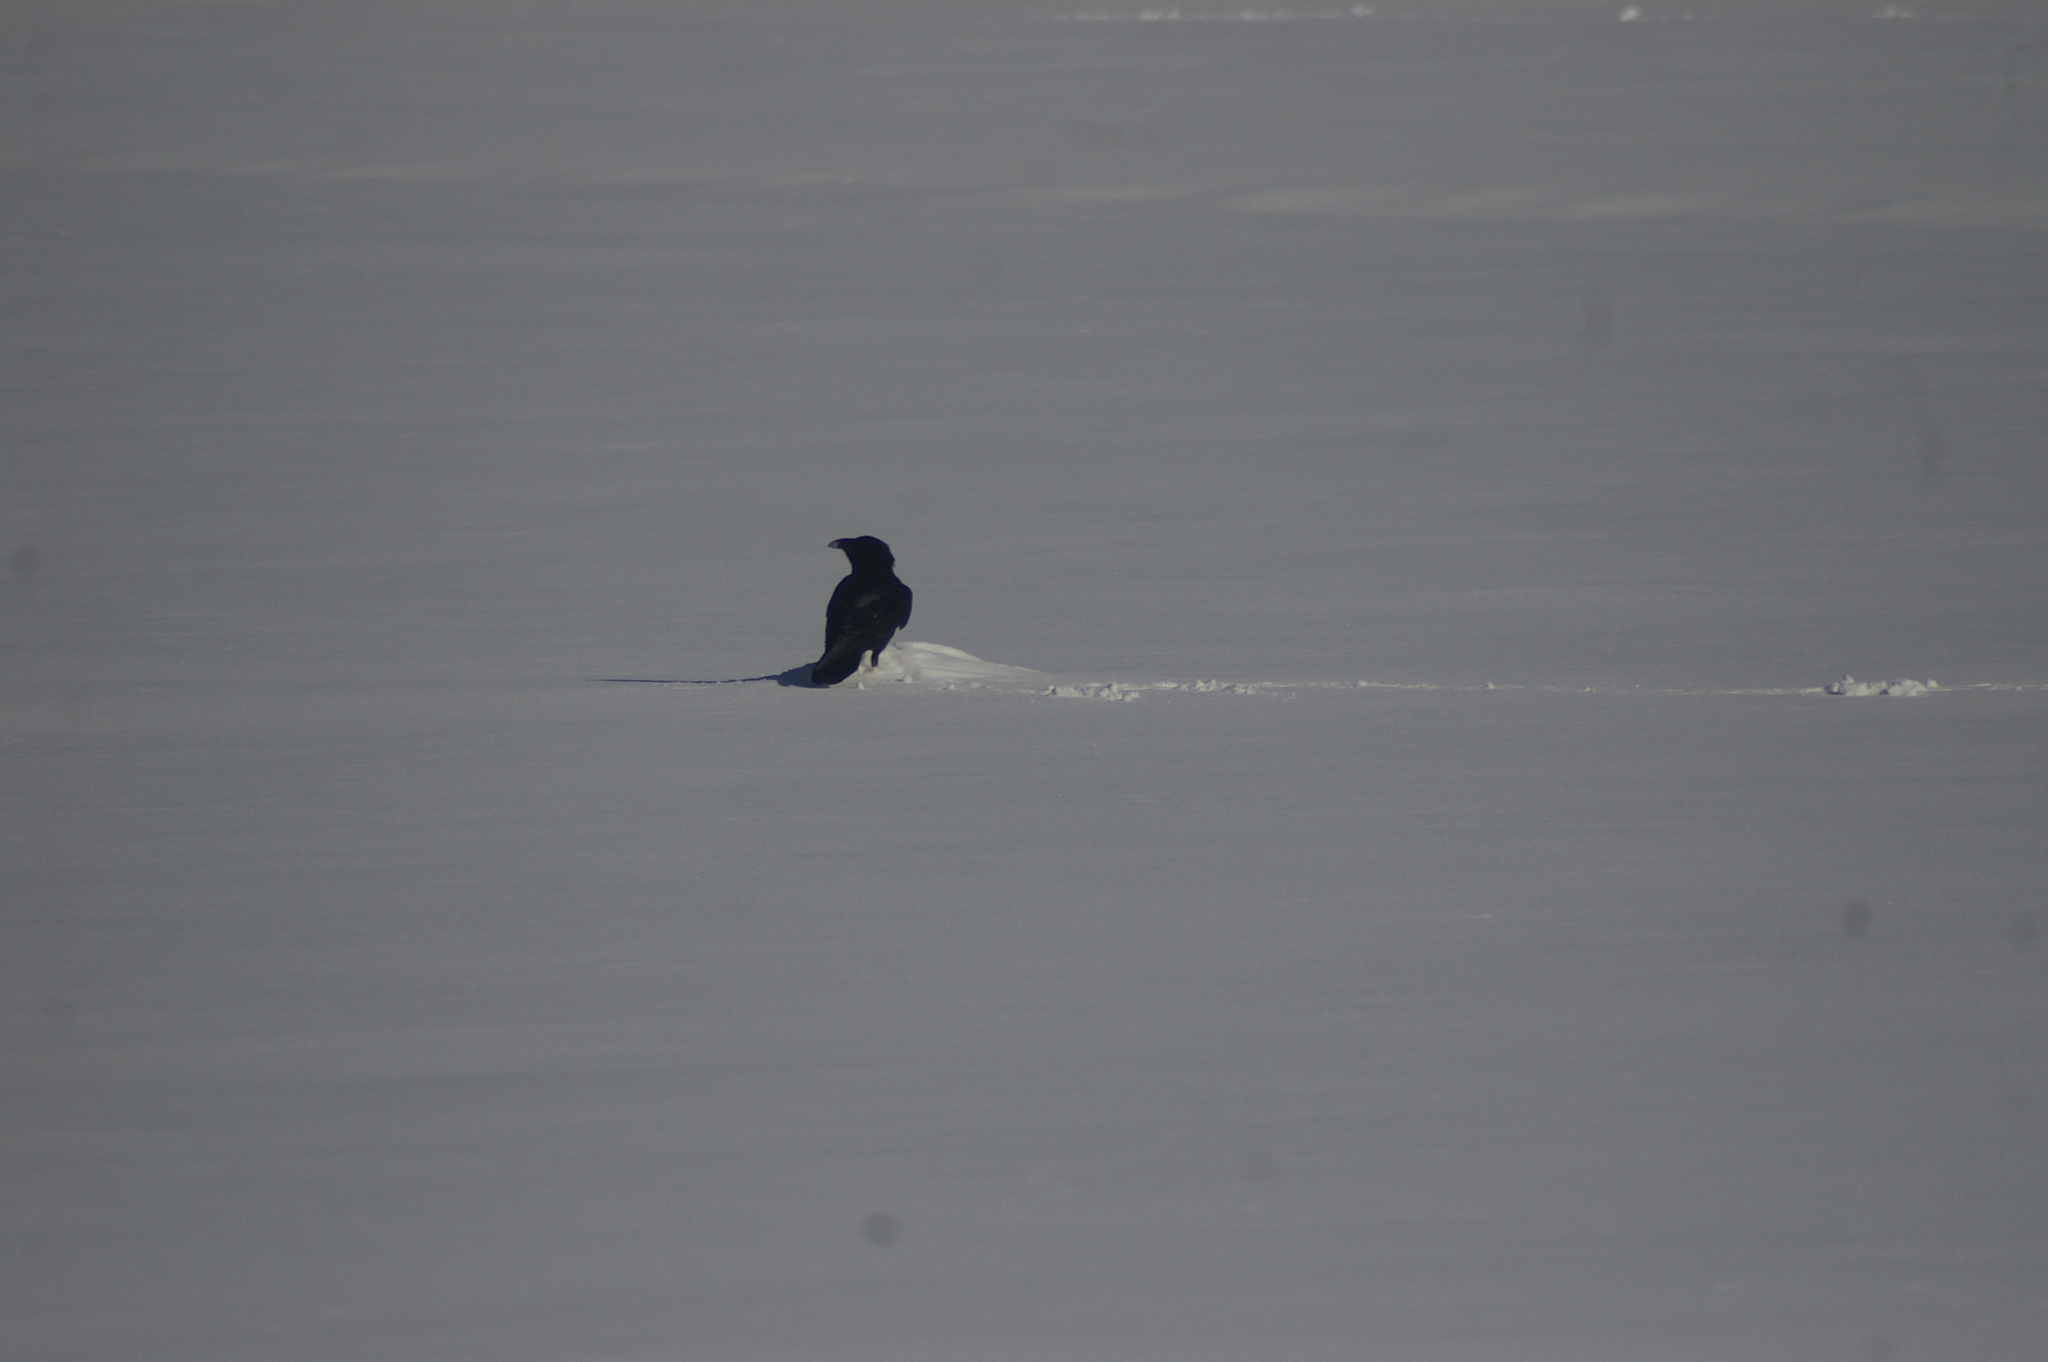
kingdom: Animalia
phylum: Chordata
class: Aves
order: Passeriformes
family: Corvidae
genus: Corvus
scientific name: Corvus corax
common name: Common raven
